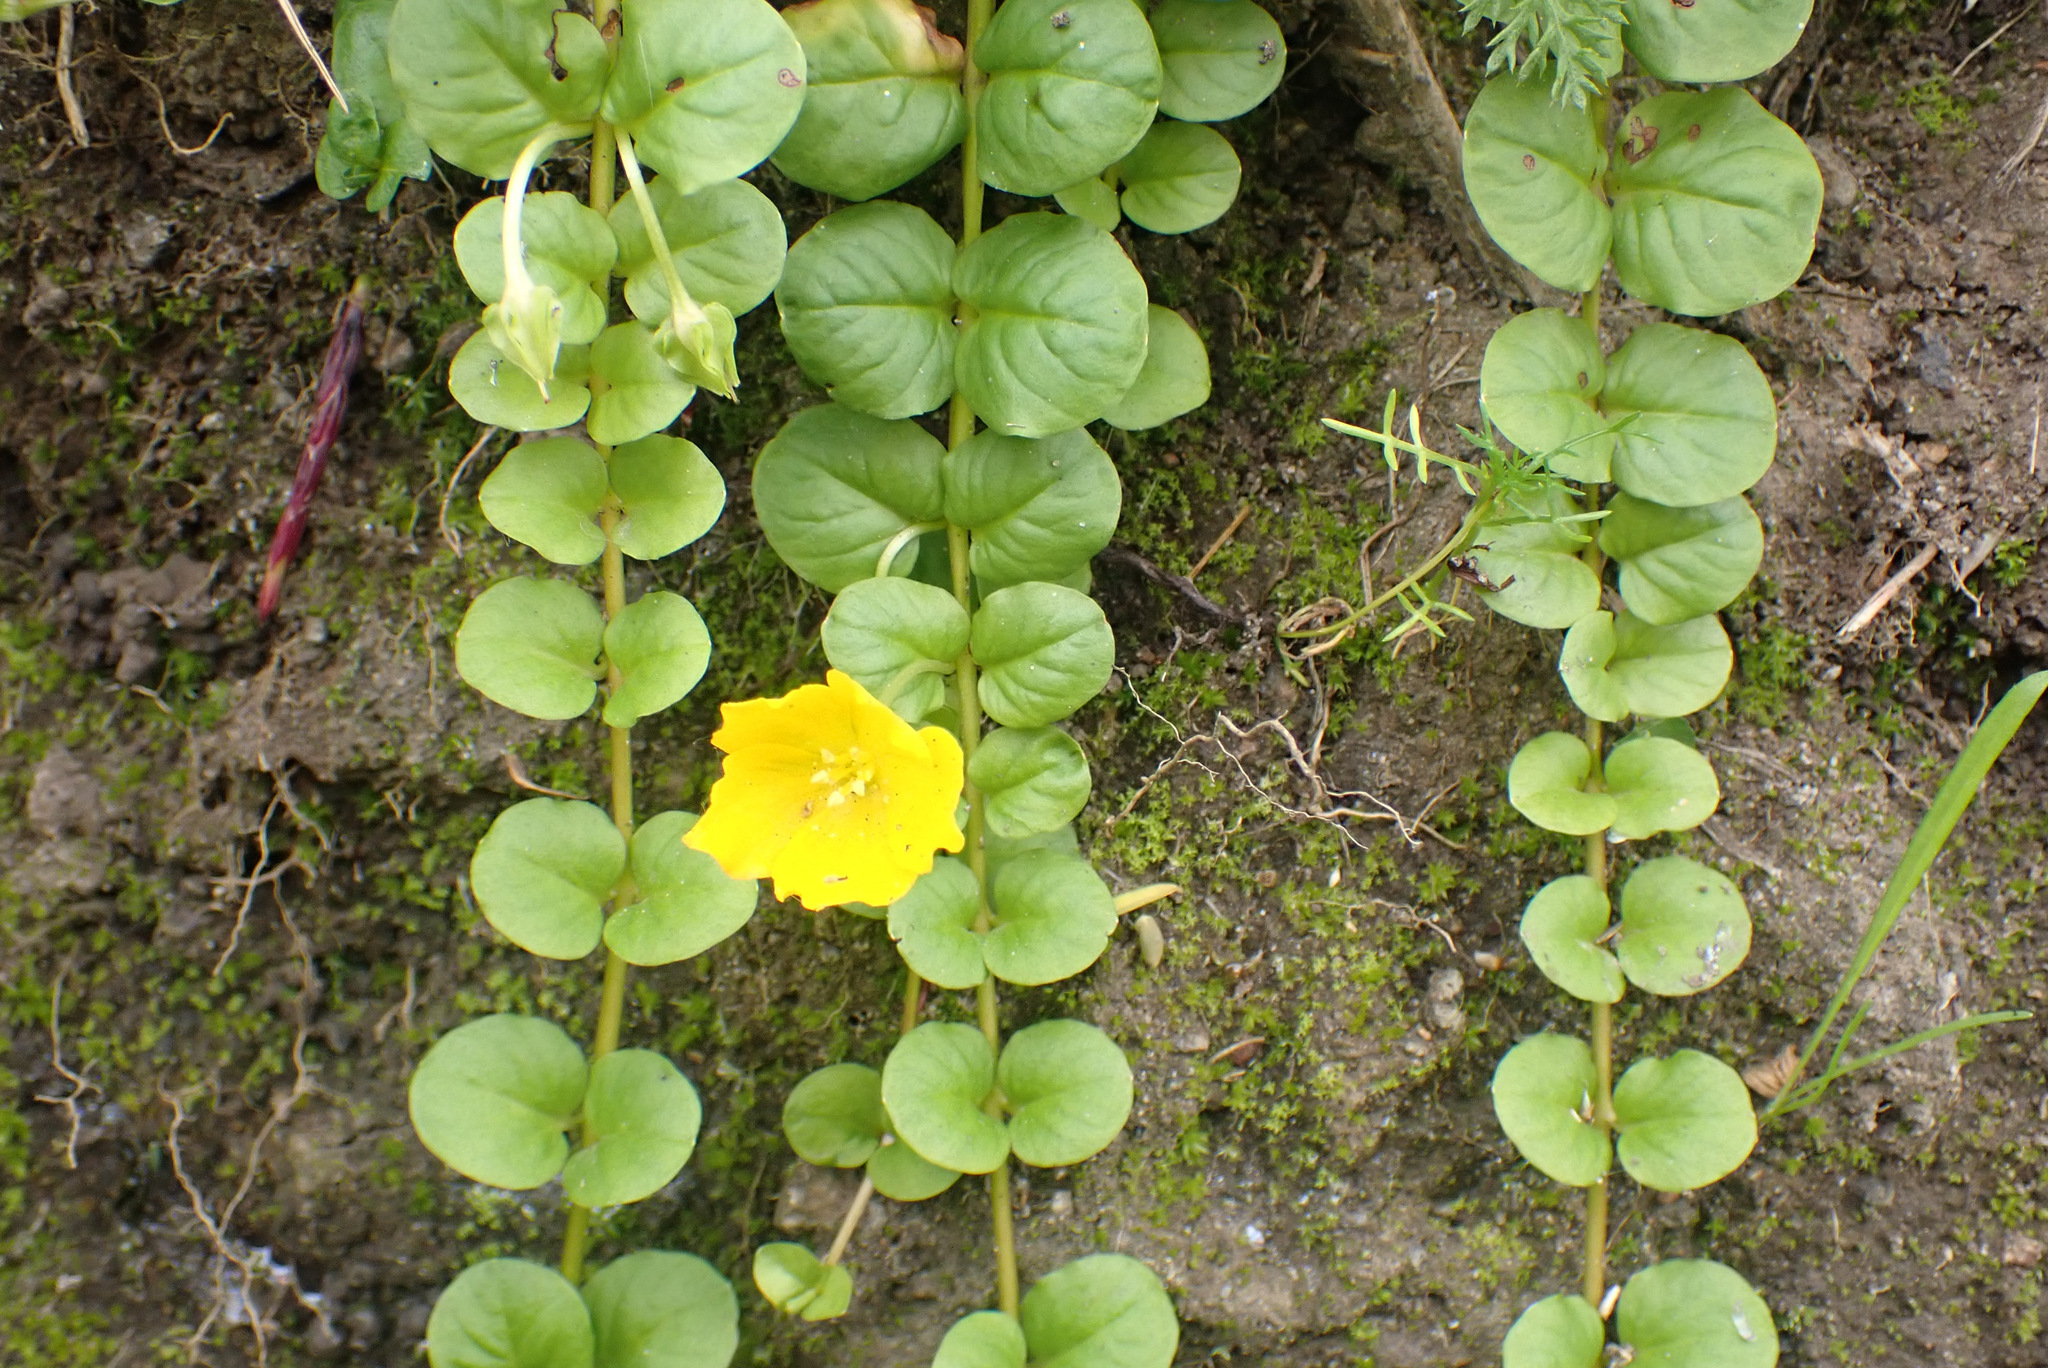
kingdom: Plantae
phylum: Tracheophyta
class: Magnoliopsida
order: Ericales
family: Primulaceae
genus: Lysimachia
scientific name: Lysimachia nummularia
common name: Moneywort
